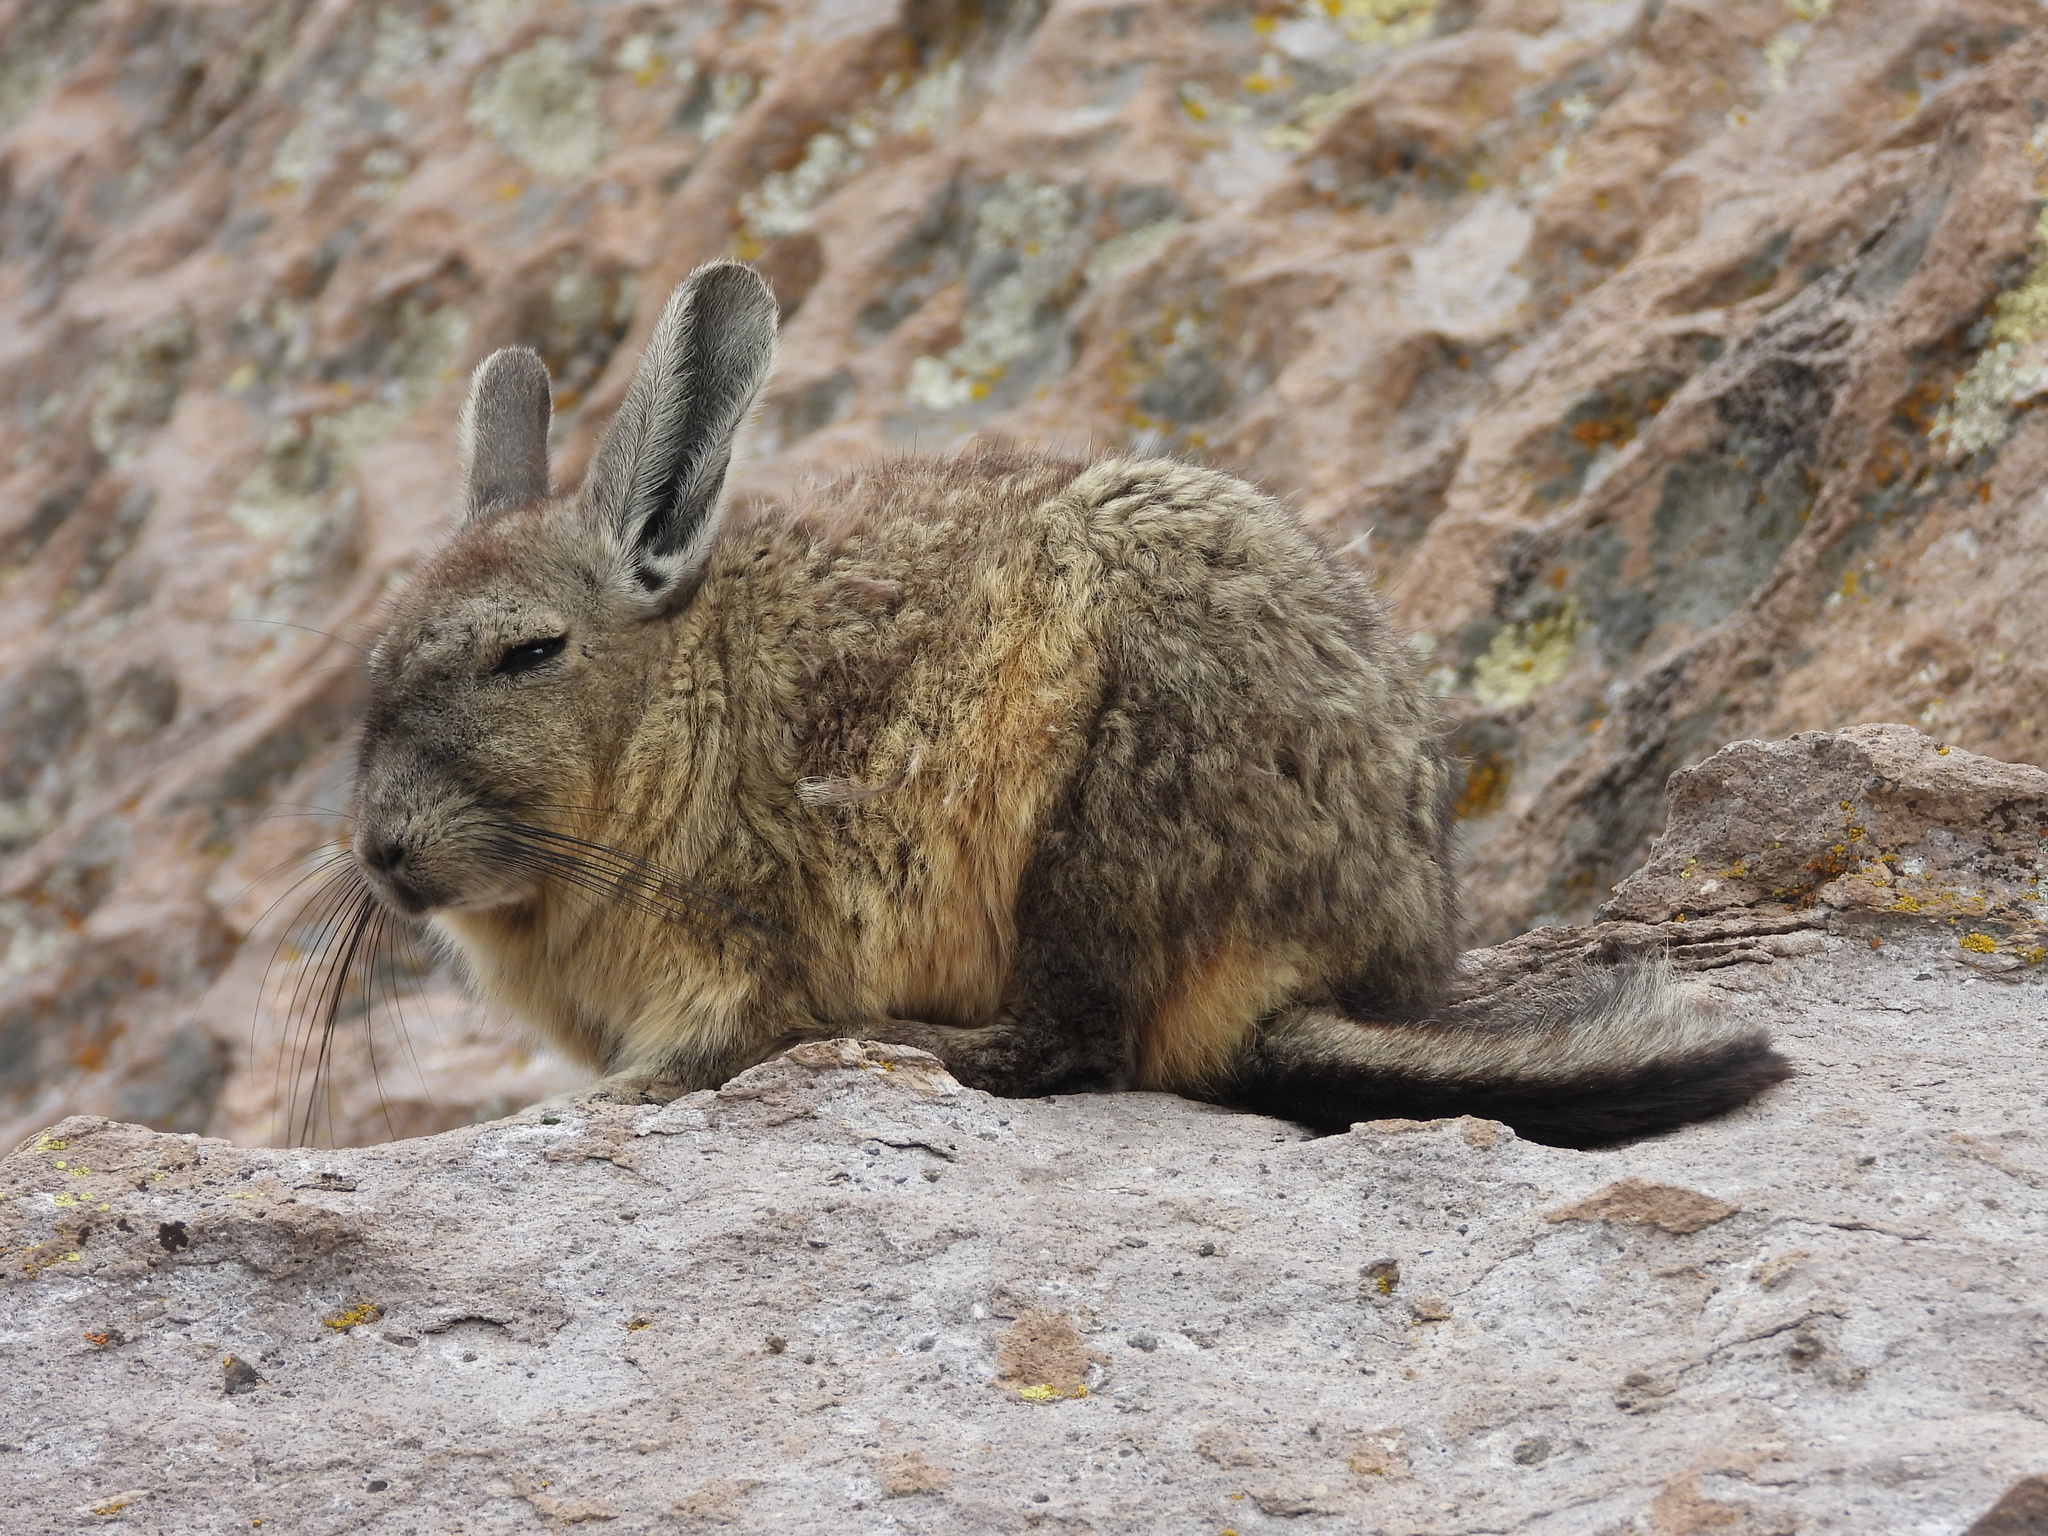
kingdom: Animalia
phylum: Chordata
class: Mammalia
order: Rodentia
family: Chinchillidae
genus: Lagidium
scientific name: Lagidium viscacia
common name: Southern viscacha
